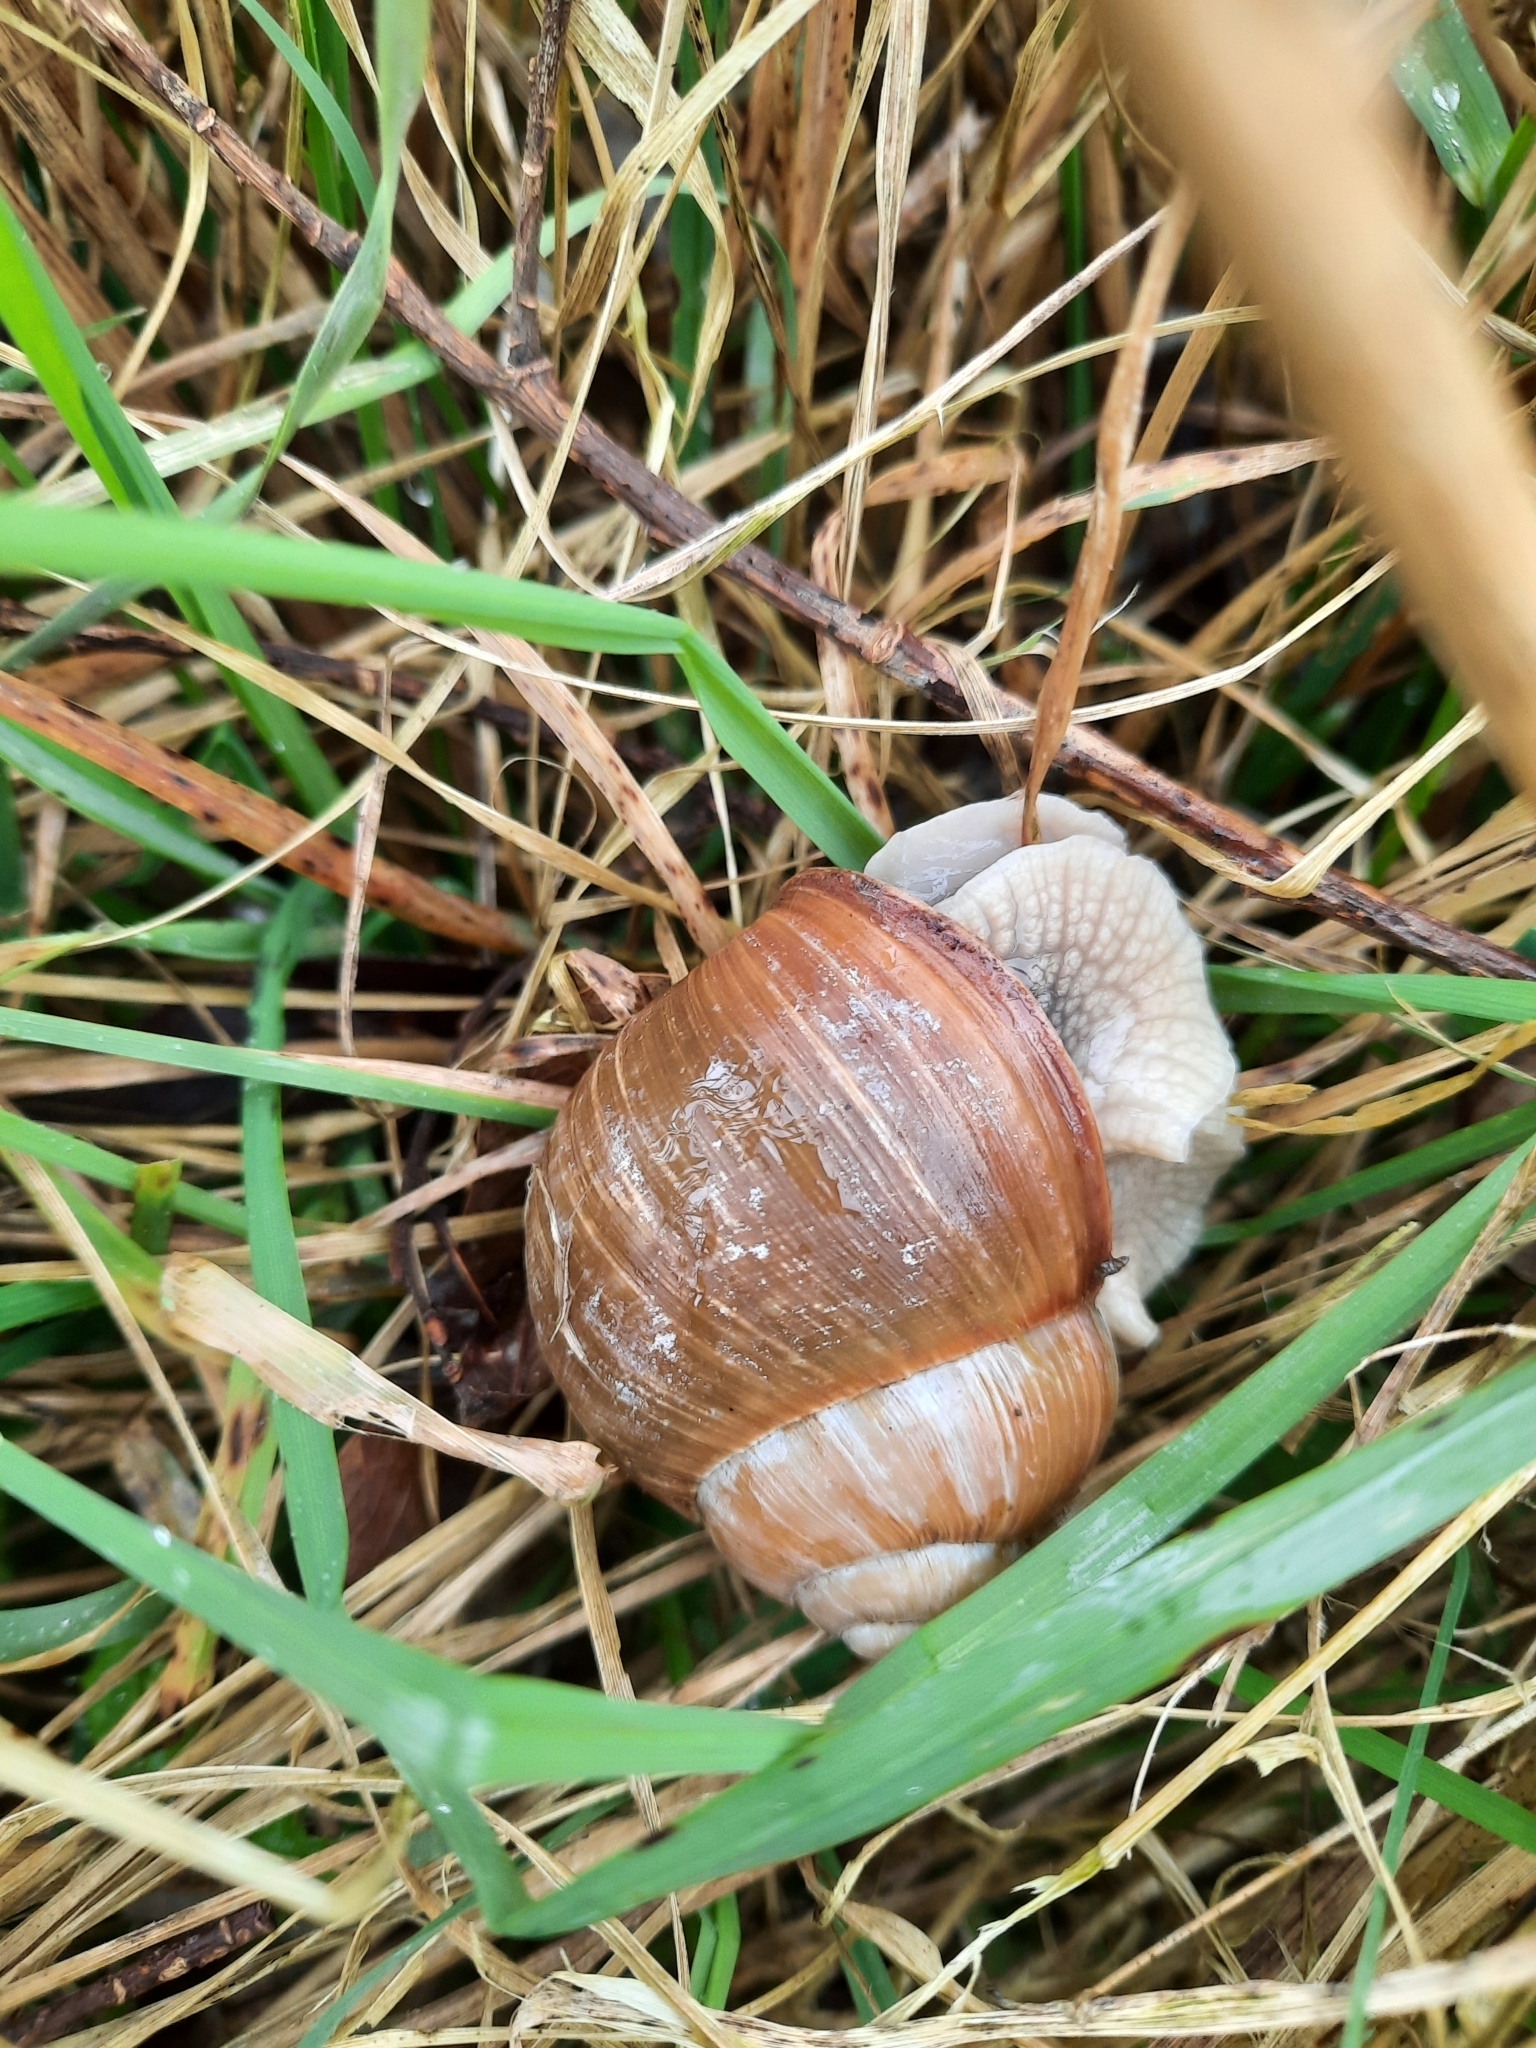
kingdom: Animalia
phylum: Mollusca
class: Gastropoda
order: Stylommatophora
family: Helicidae
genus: Helix
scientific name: Helix pomatia
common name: Roman snail
